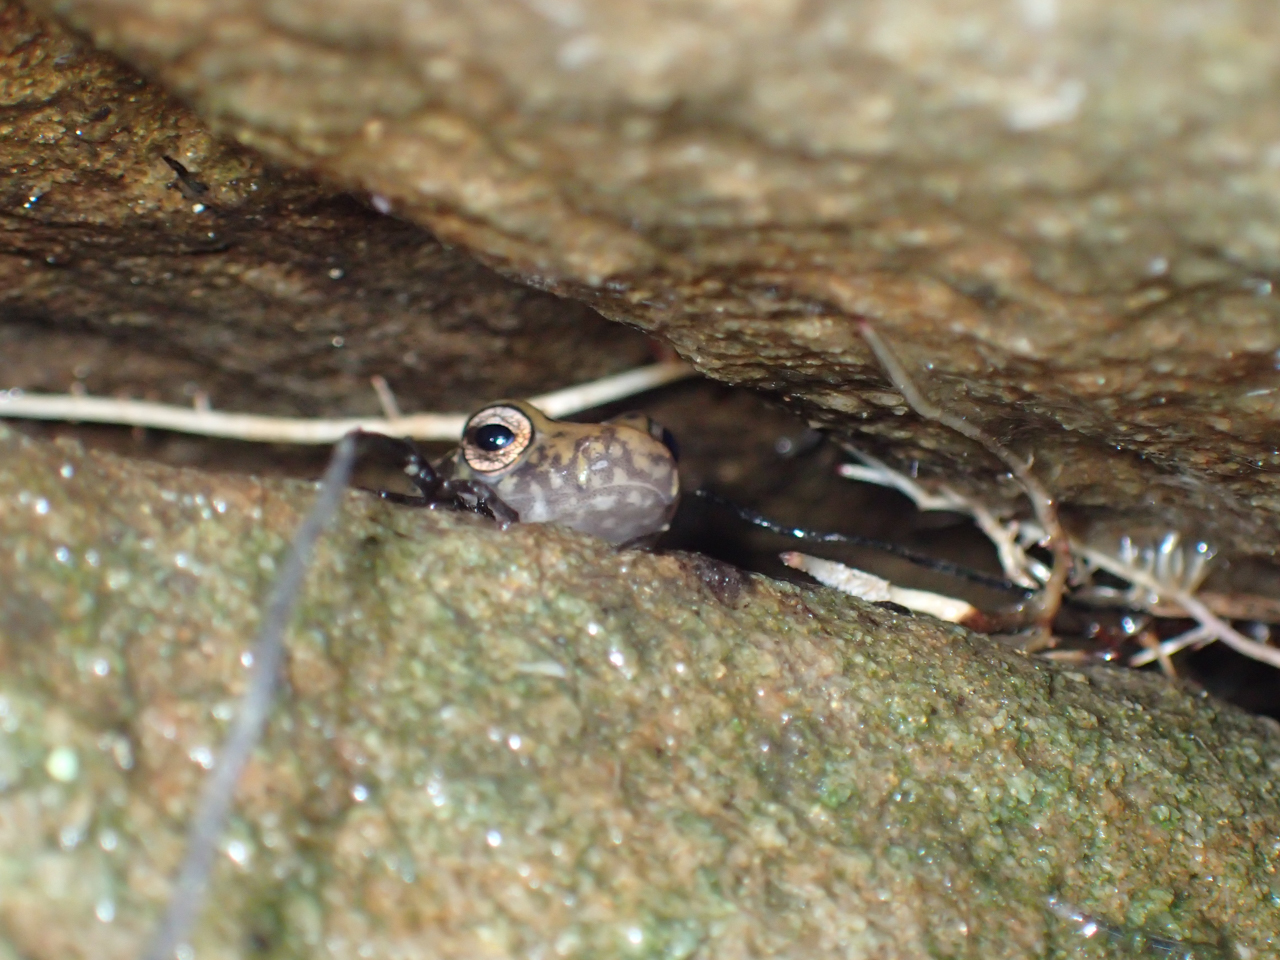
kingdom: Animalia
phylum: Chordata
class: Amphibia
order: Caudata
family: Plethodontidae
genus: Eurycea
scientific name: Eurycea guttolineata
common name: Three-lined salamander
